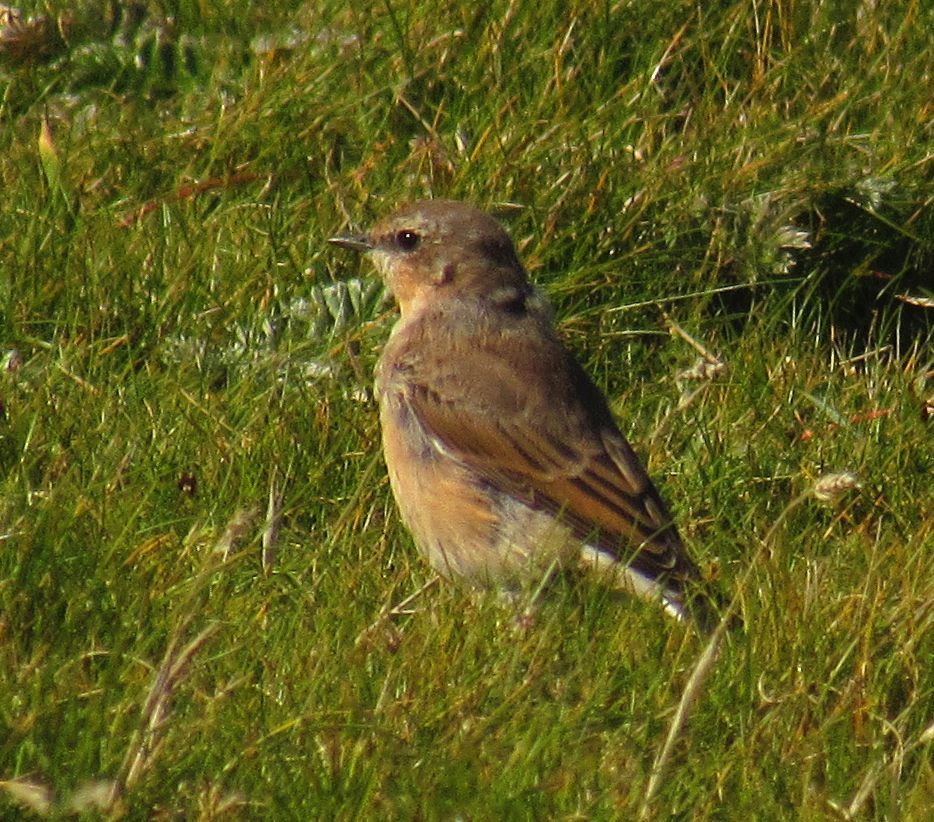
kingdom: Animalia
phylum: Chordata
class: Aves
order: Passeriformes
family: Muscicapidae
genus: Oenanthe
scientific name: Oenanthe oenanthe
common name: Northern wheatear
